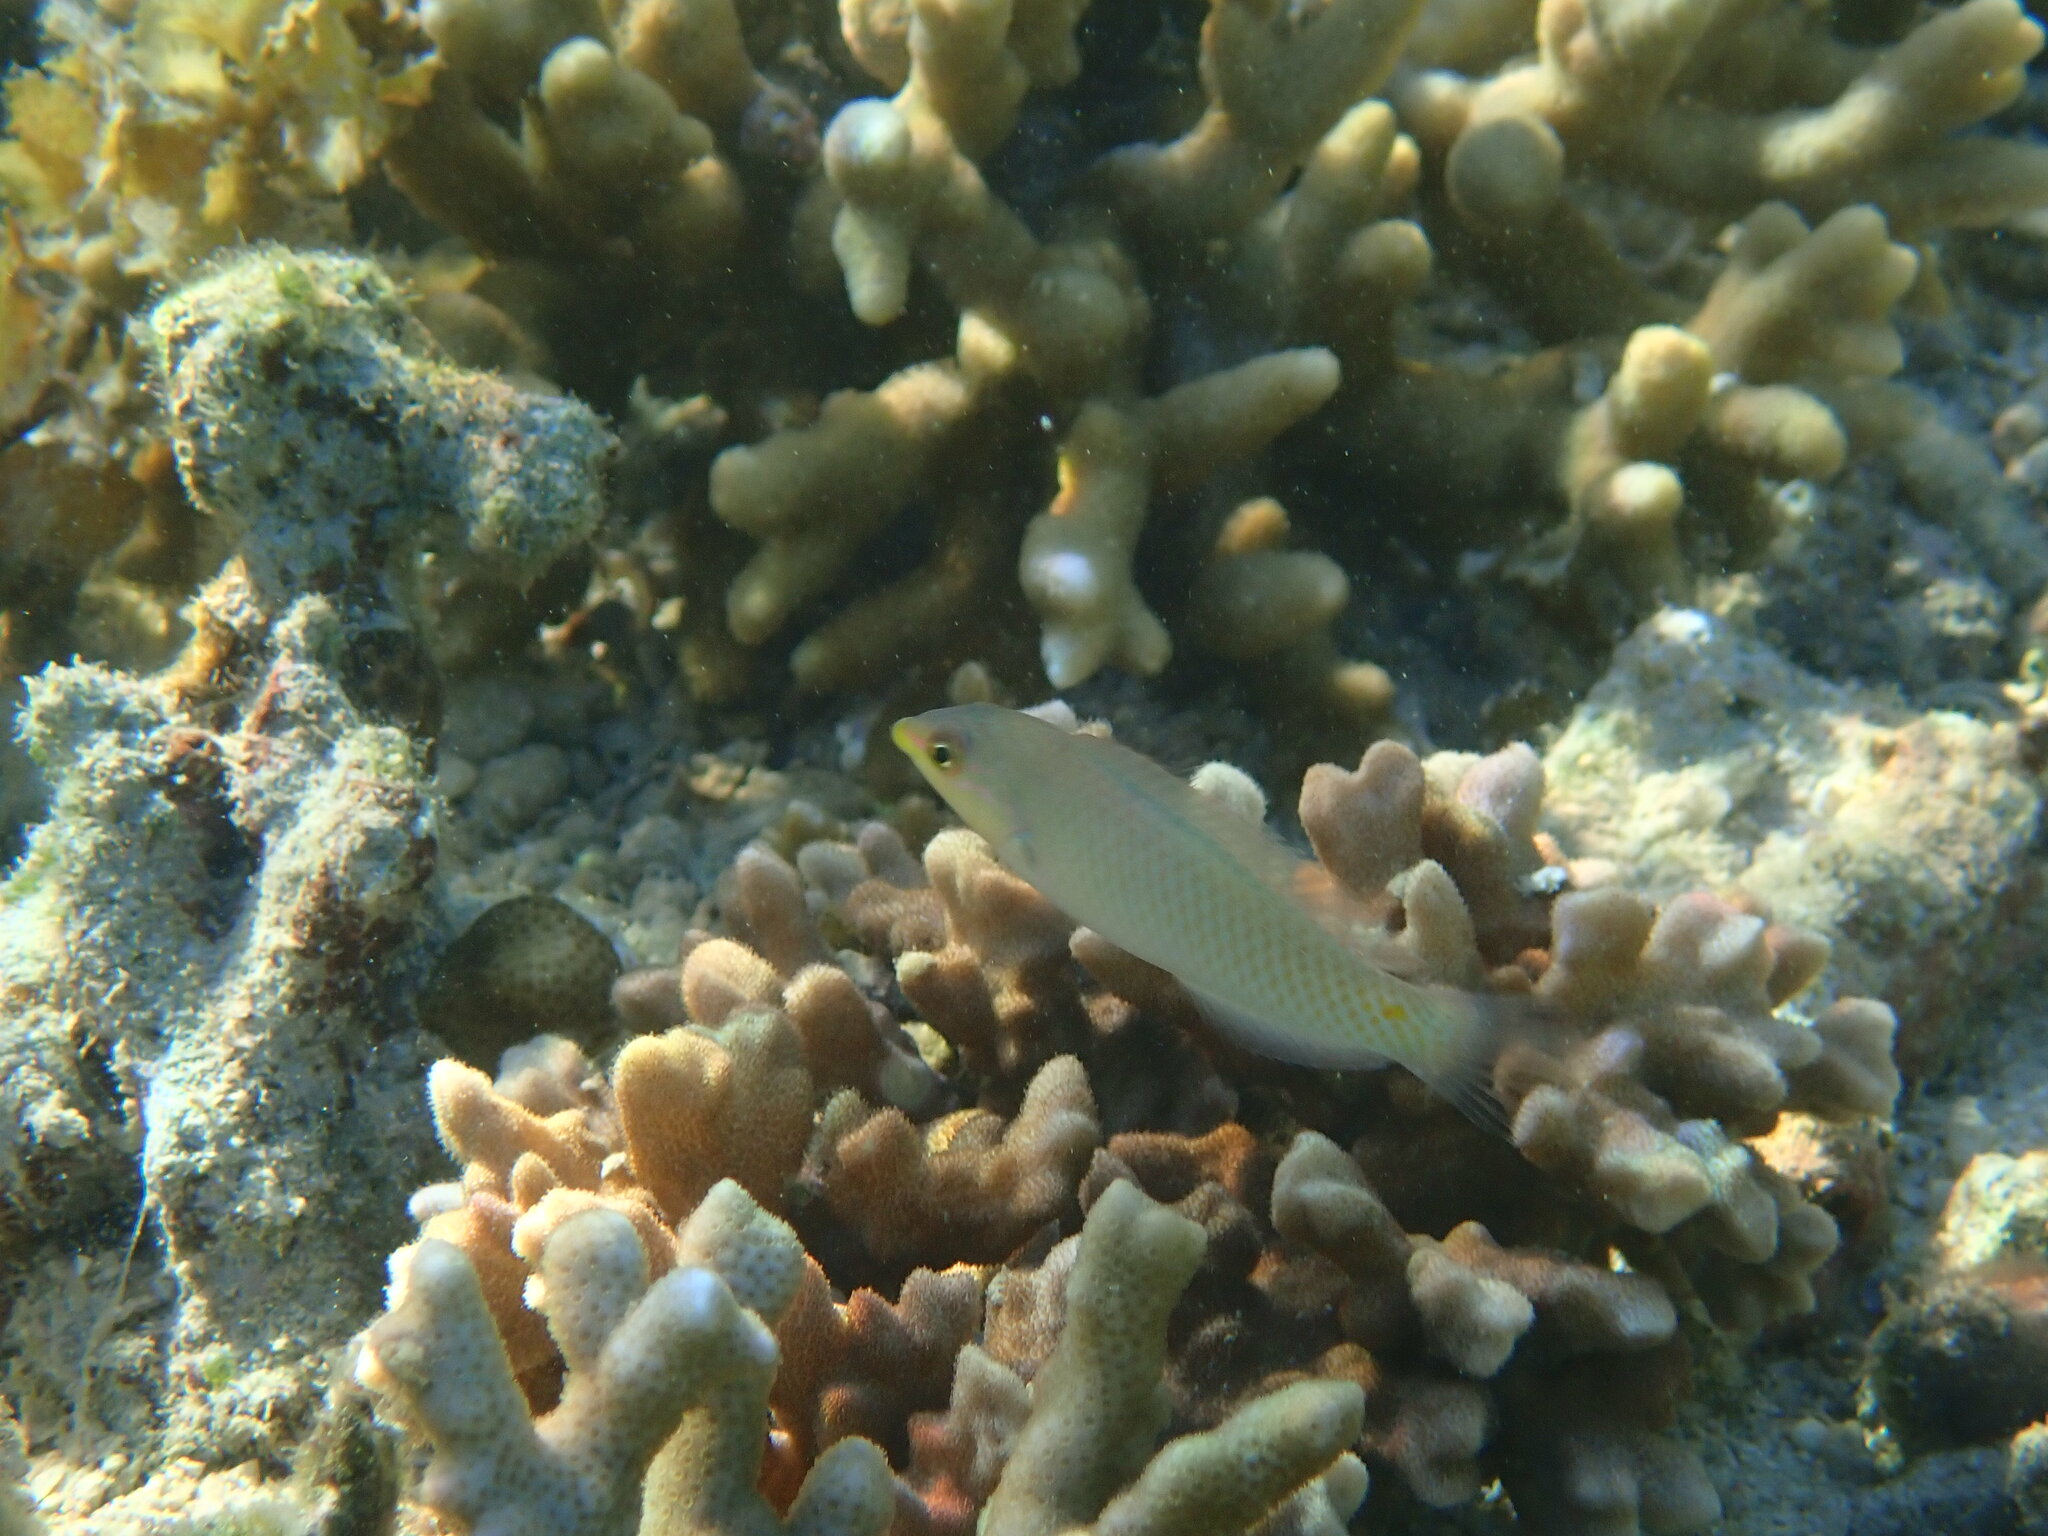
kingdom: Animalia
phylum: Chordata
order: Perciformes
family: Labridae
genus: Halichoeres
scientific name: Halichoeres trimaculatus
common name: Three-spot wrasse
